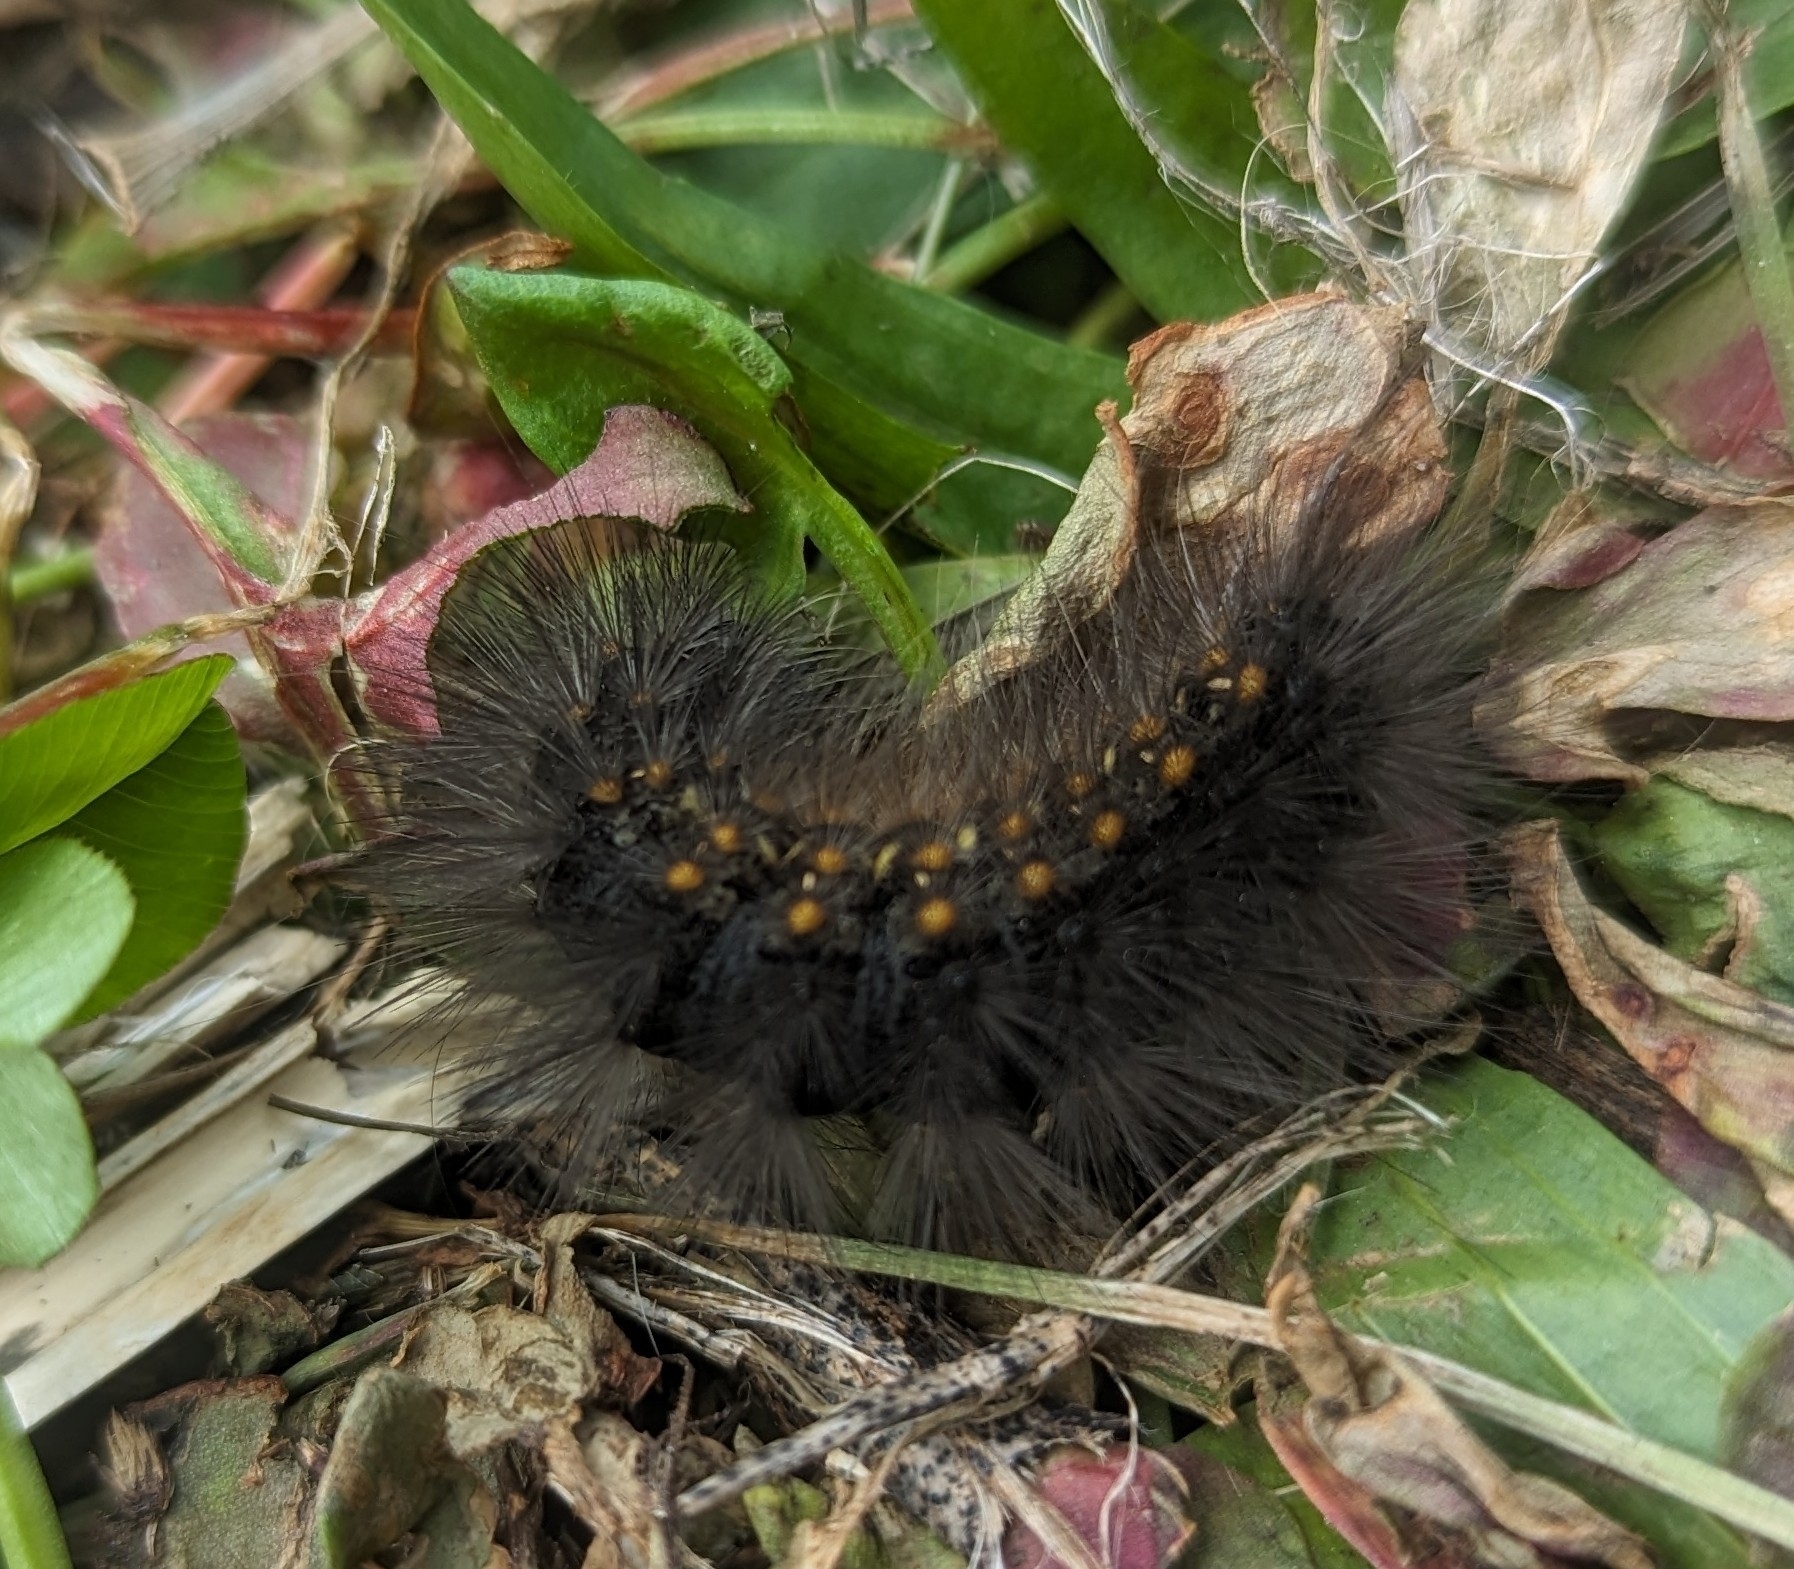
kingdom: Animalia
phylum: Arthropoda
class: Insecta
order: Lepidoptera
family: Erebidae
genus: Estigmene
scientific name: Estigmene acrea
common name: Salt marsh moth
